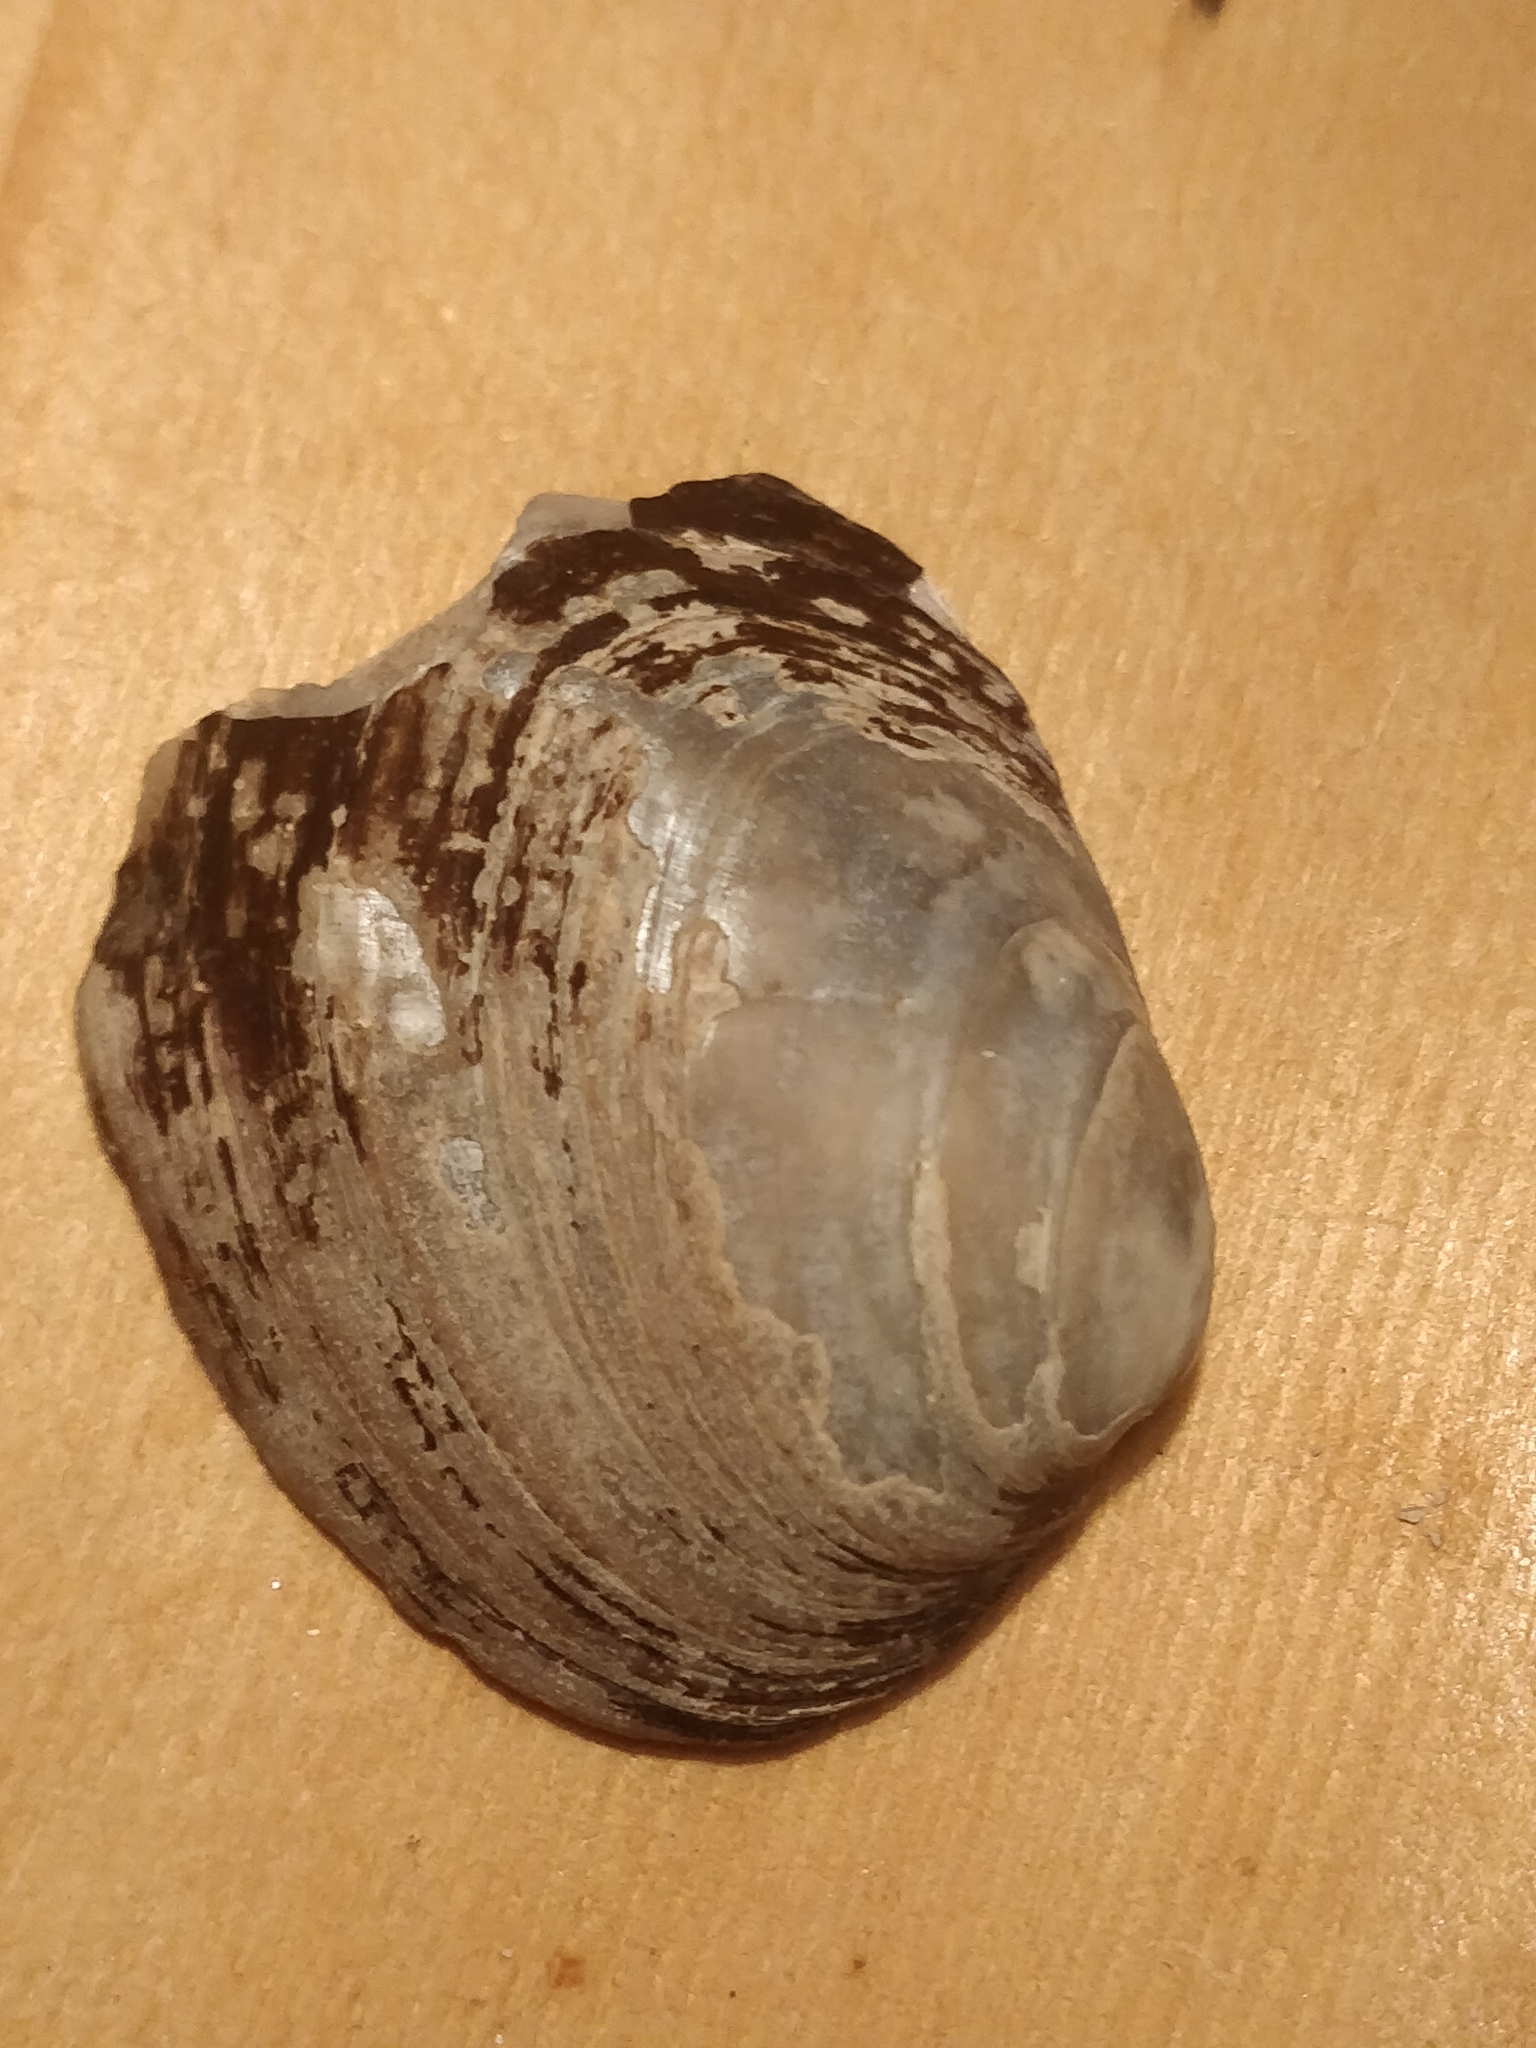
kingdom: Animalia
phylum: Mollusca
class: Bivalvia
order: Unionida
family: Unionidae
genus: Amblema
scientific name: Amblema plicata
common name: Threeridge
